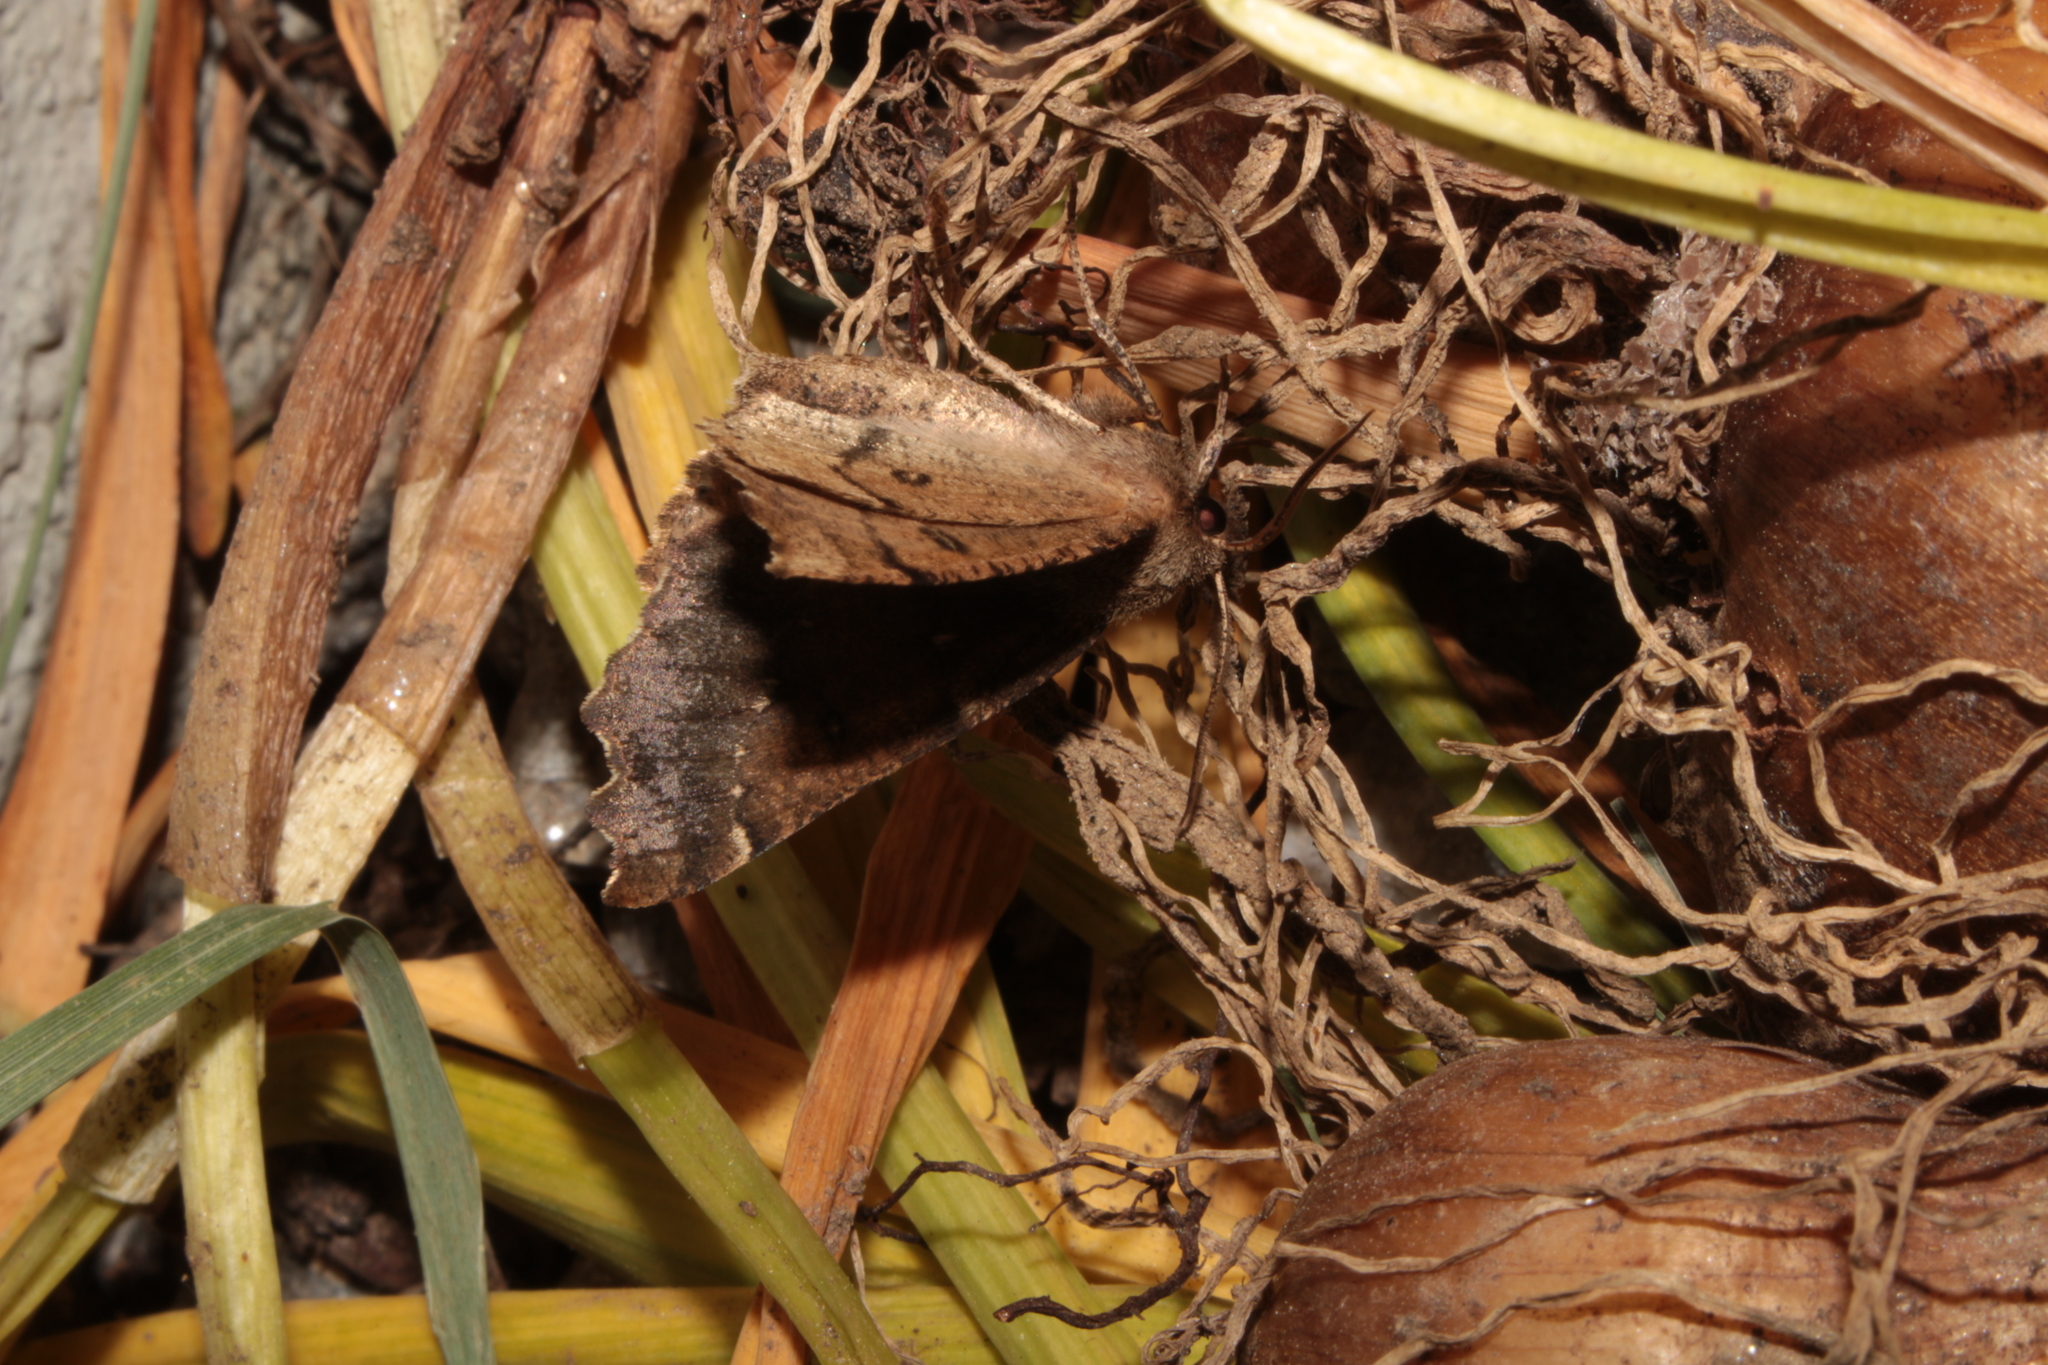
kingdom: Animalia
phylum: Arthropoda
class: Insecta
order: Lepidoptera
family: Geometridae
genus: Odontopera
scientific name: Odontopera bidentata
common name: Scalloped hazel
